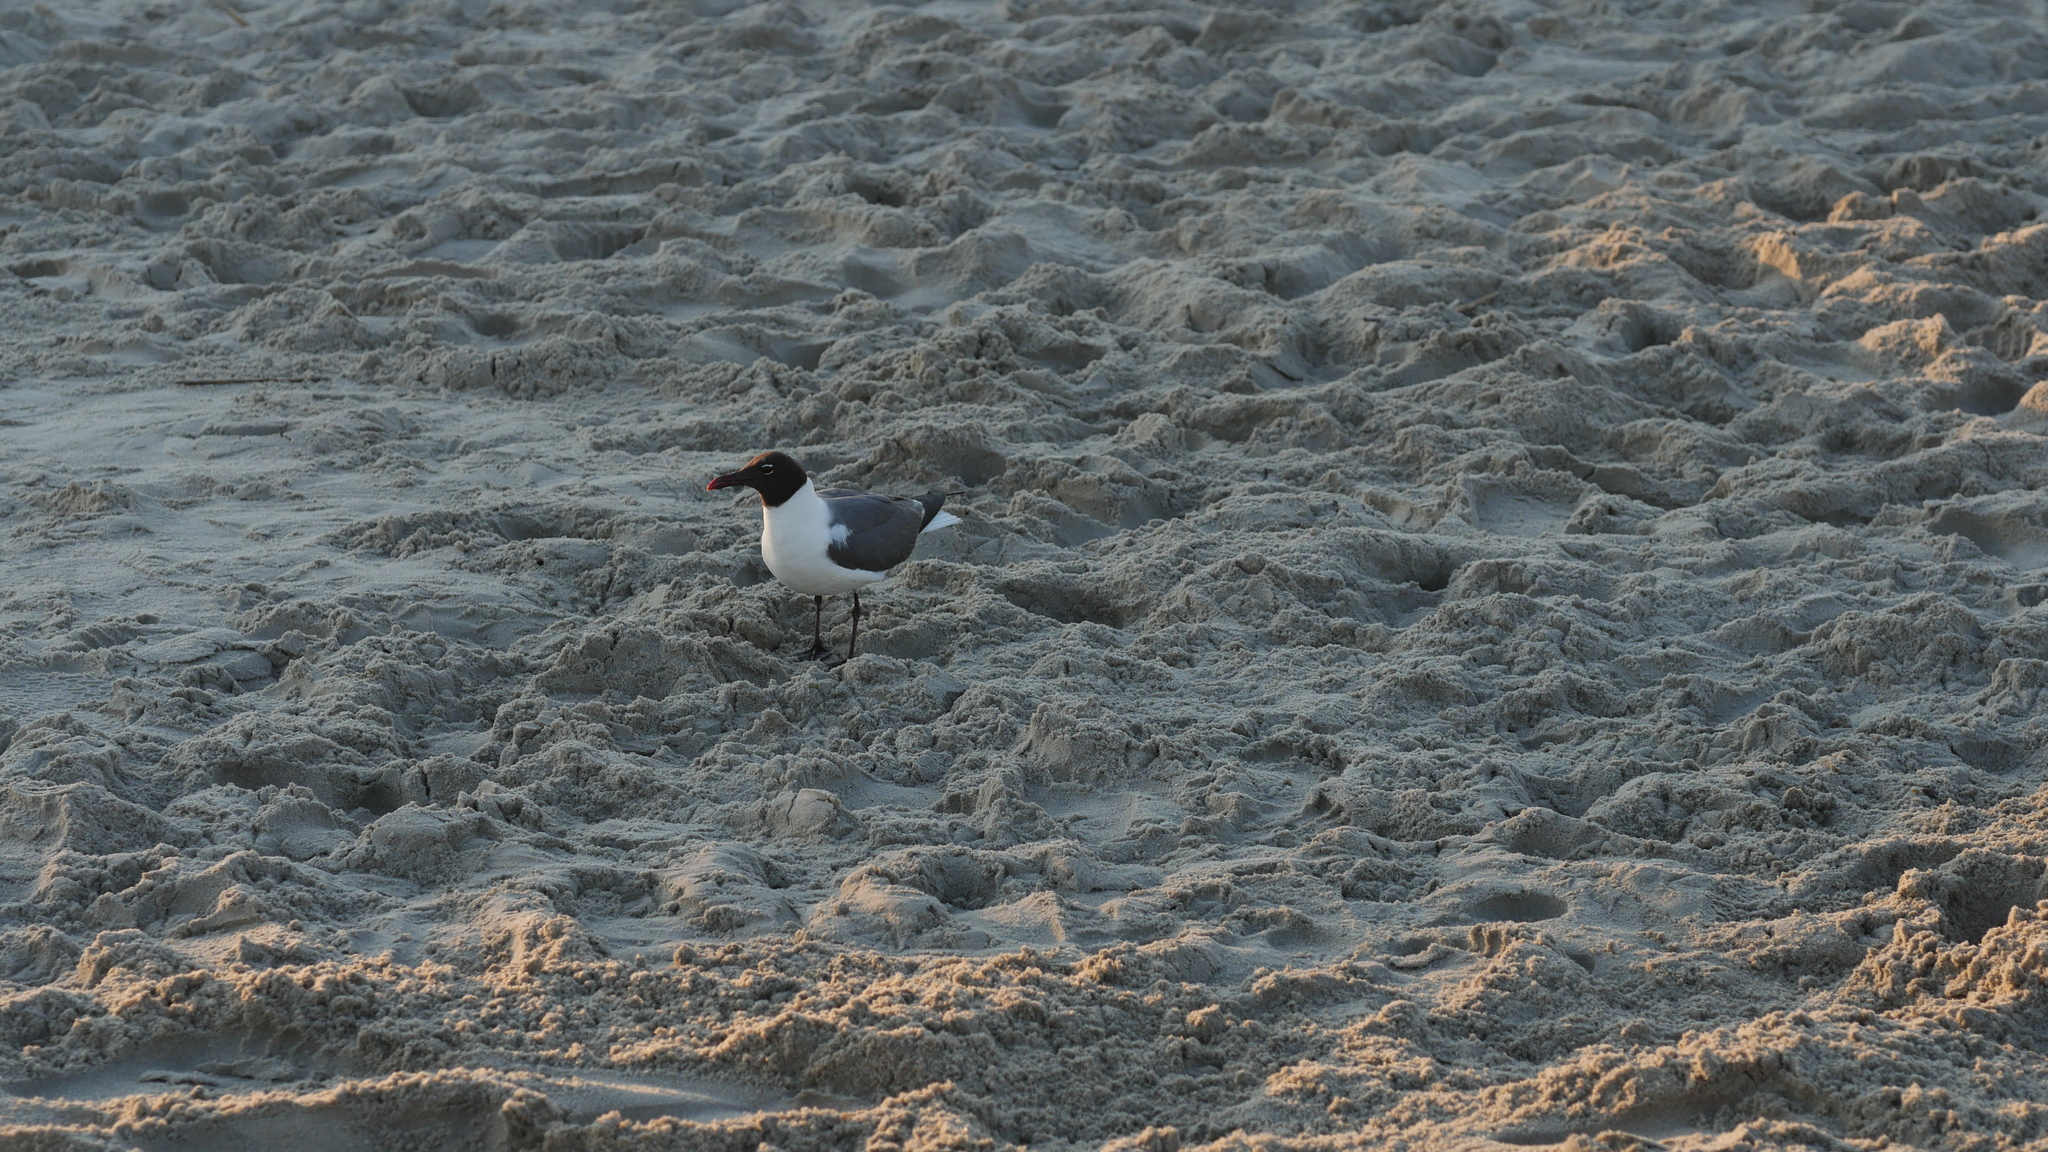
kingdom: Animalia
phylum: Chordata
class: Aves
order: Charadriiformes
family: Laridae
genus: Leucophaeus
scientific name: Leucophaeus atricilla
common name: Laughing gull
